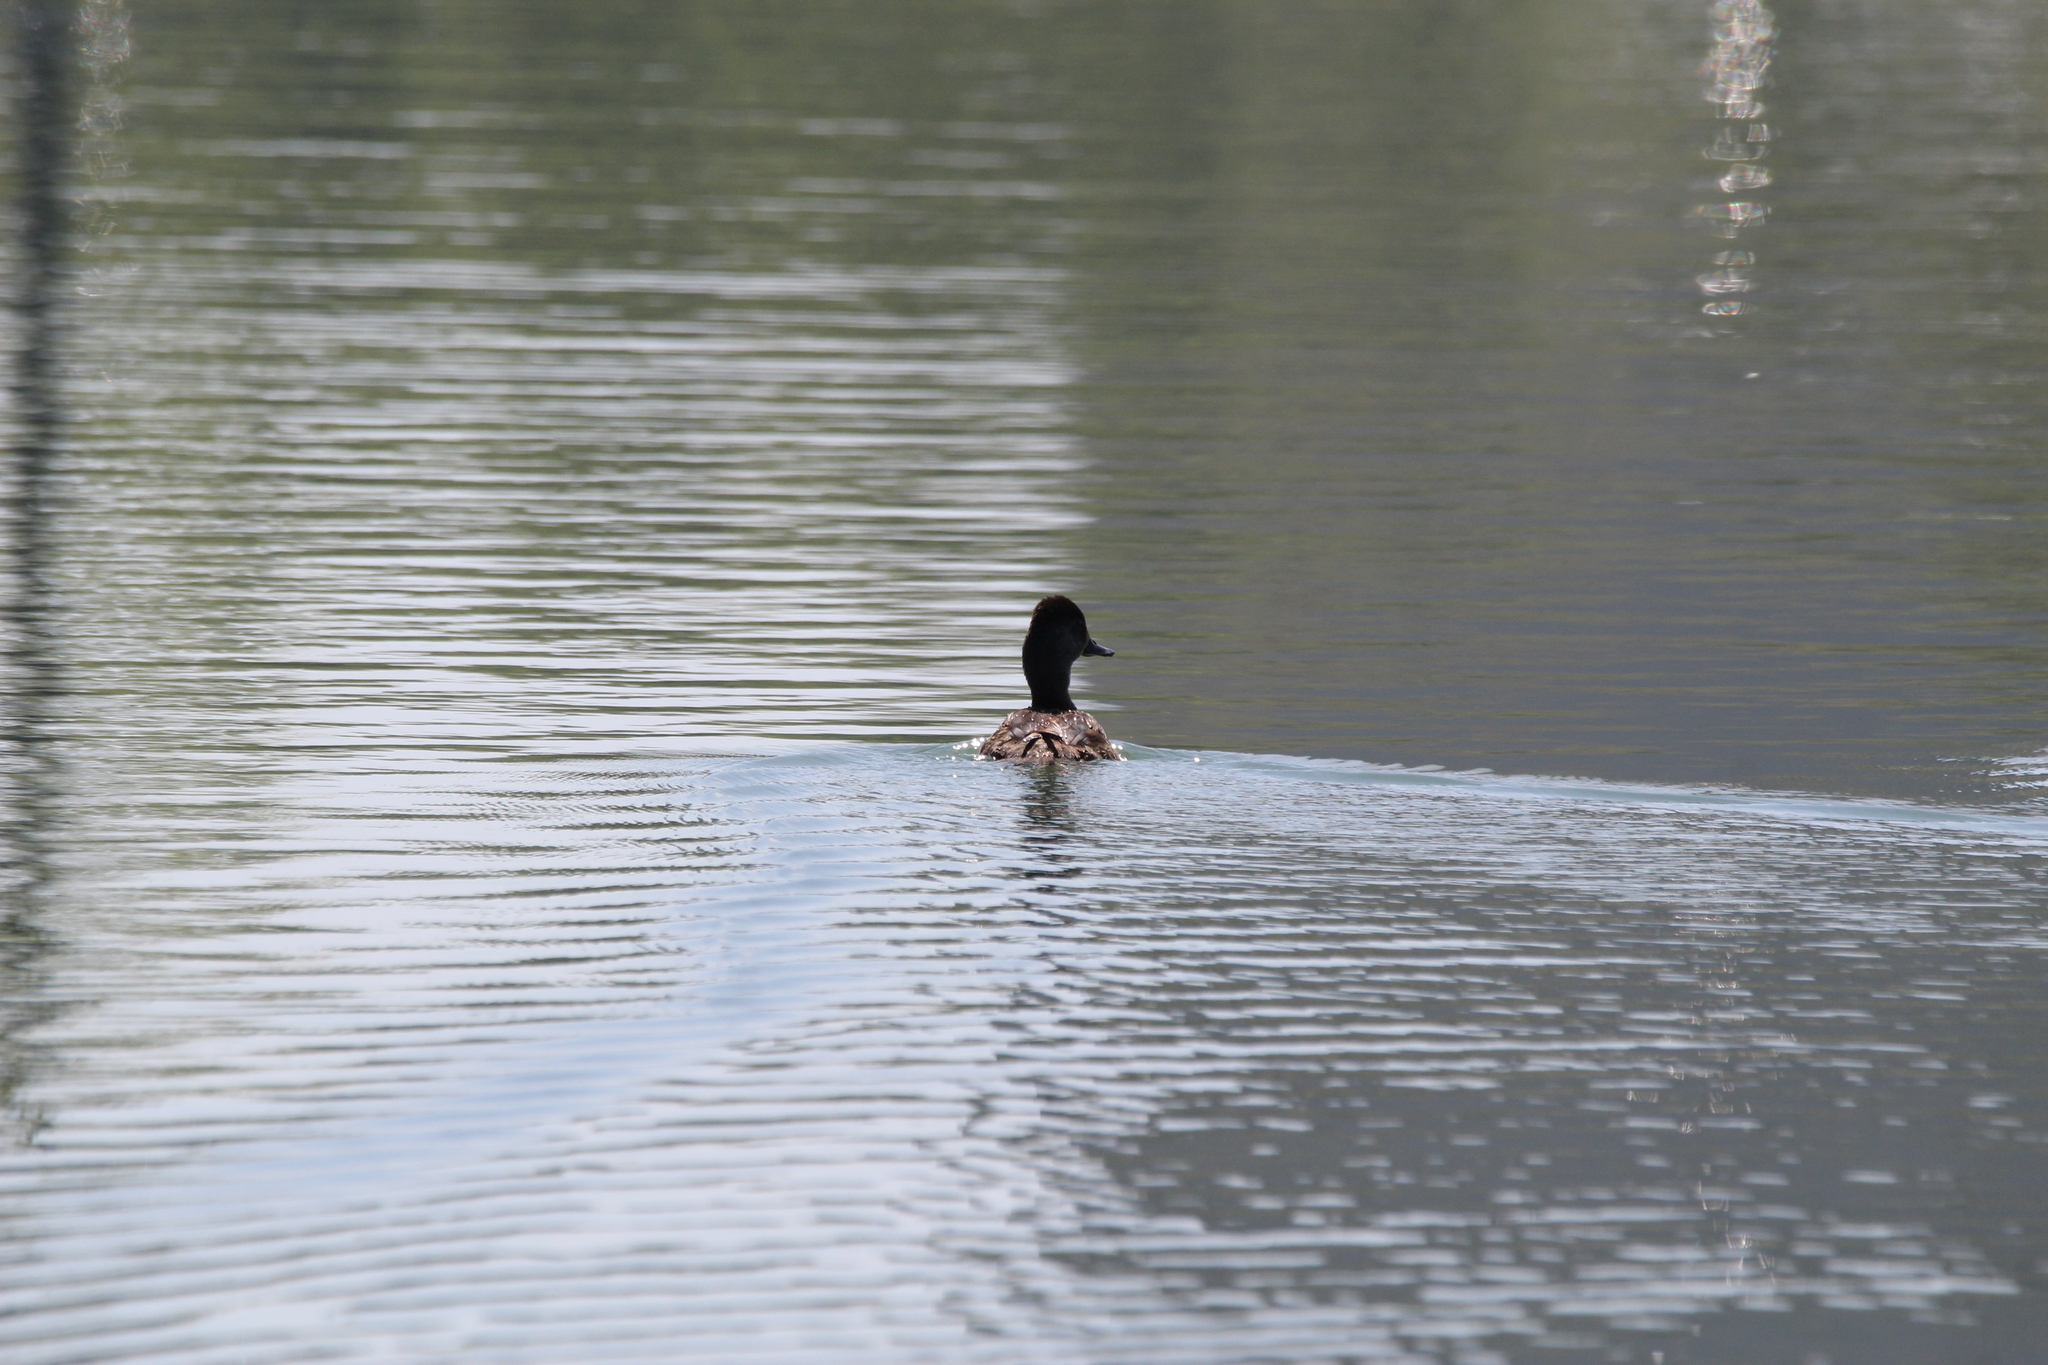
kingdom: Animalia
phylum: Chordata
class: Aves
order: Anseriformes
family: Anatidae
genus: Aythya
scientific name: Aythya collaris
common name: Ring-necked duck
